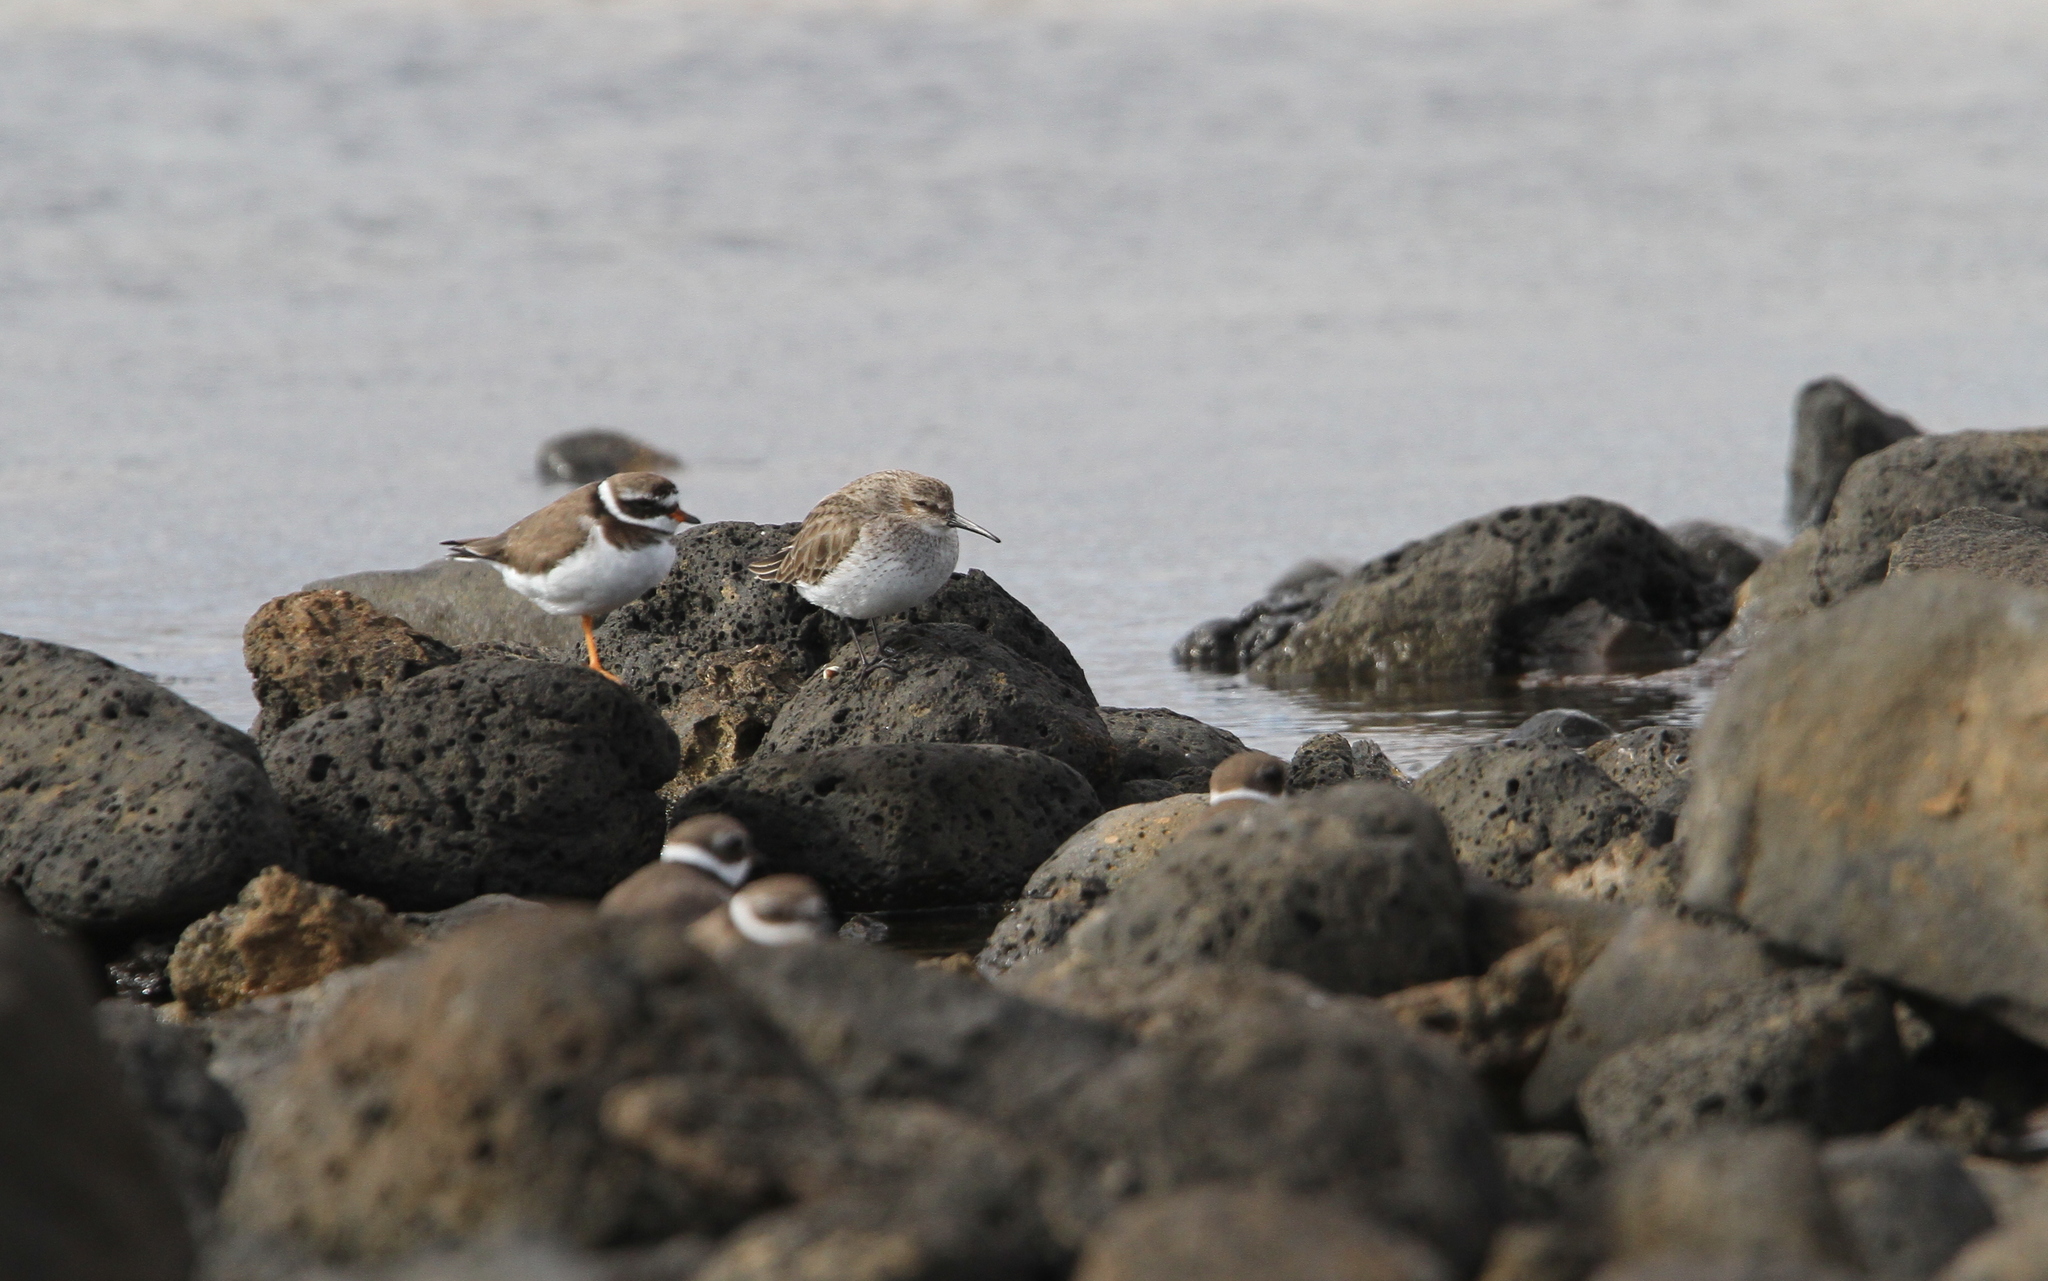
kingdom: Animalia
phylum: Chordata
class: Aves
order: Charadriiformes
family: Scolopacidae
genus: Calidris
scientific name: Calidris alpina
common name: Dunlin
